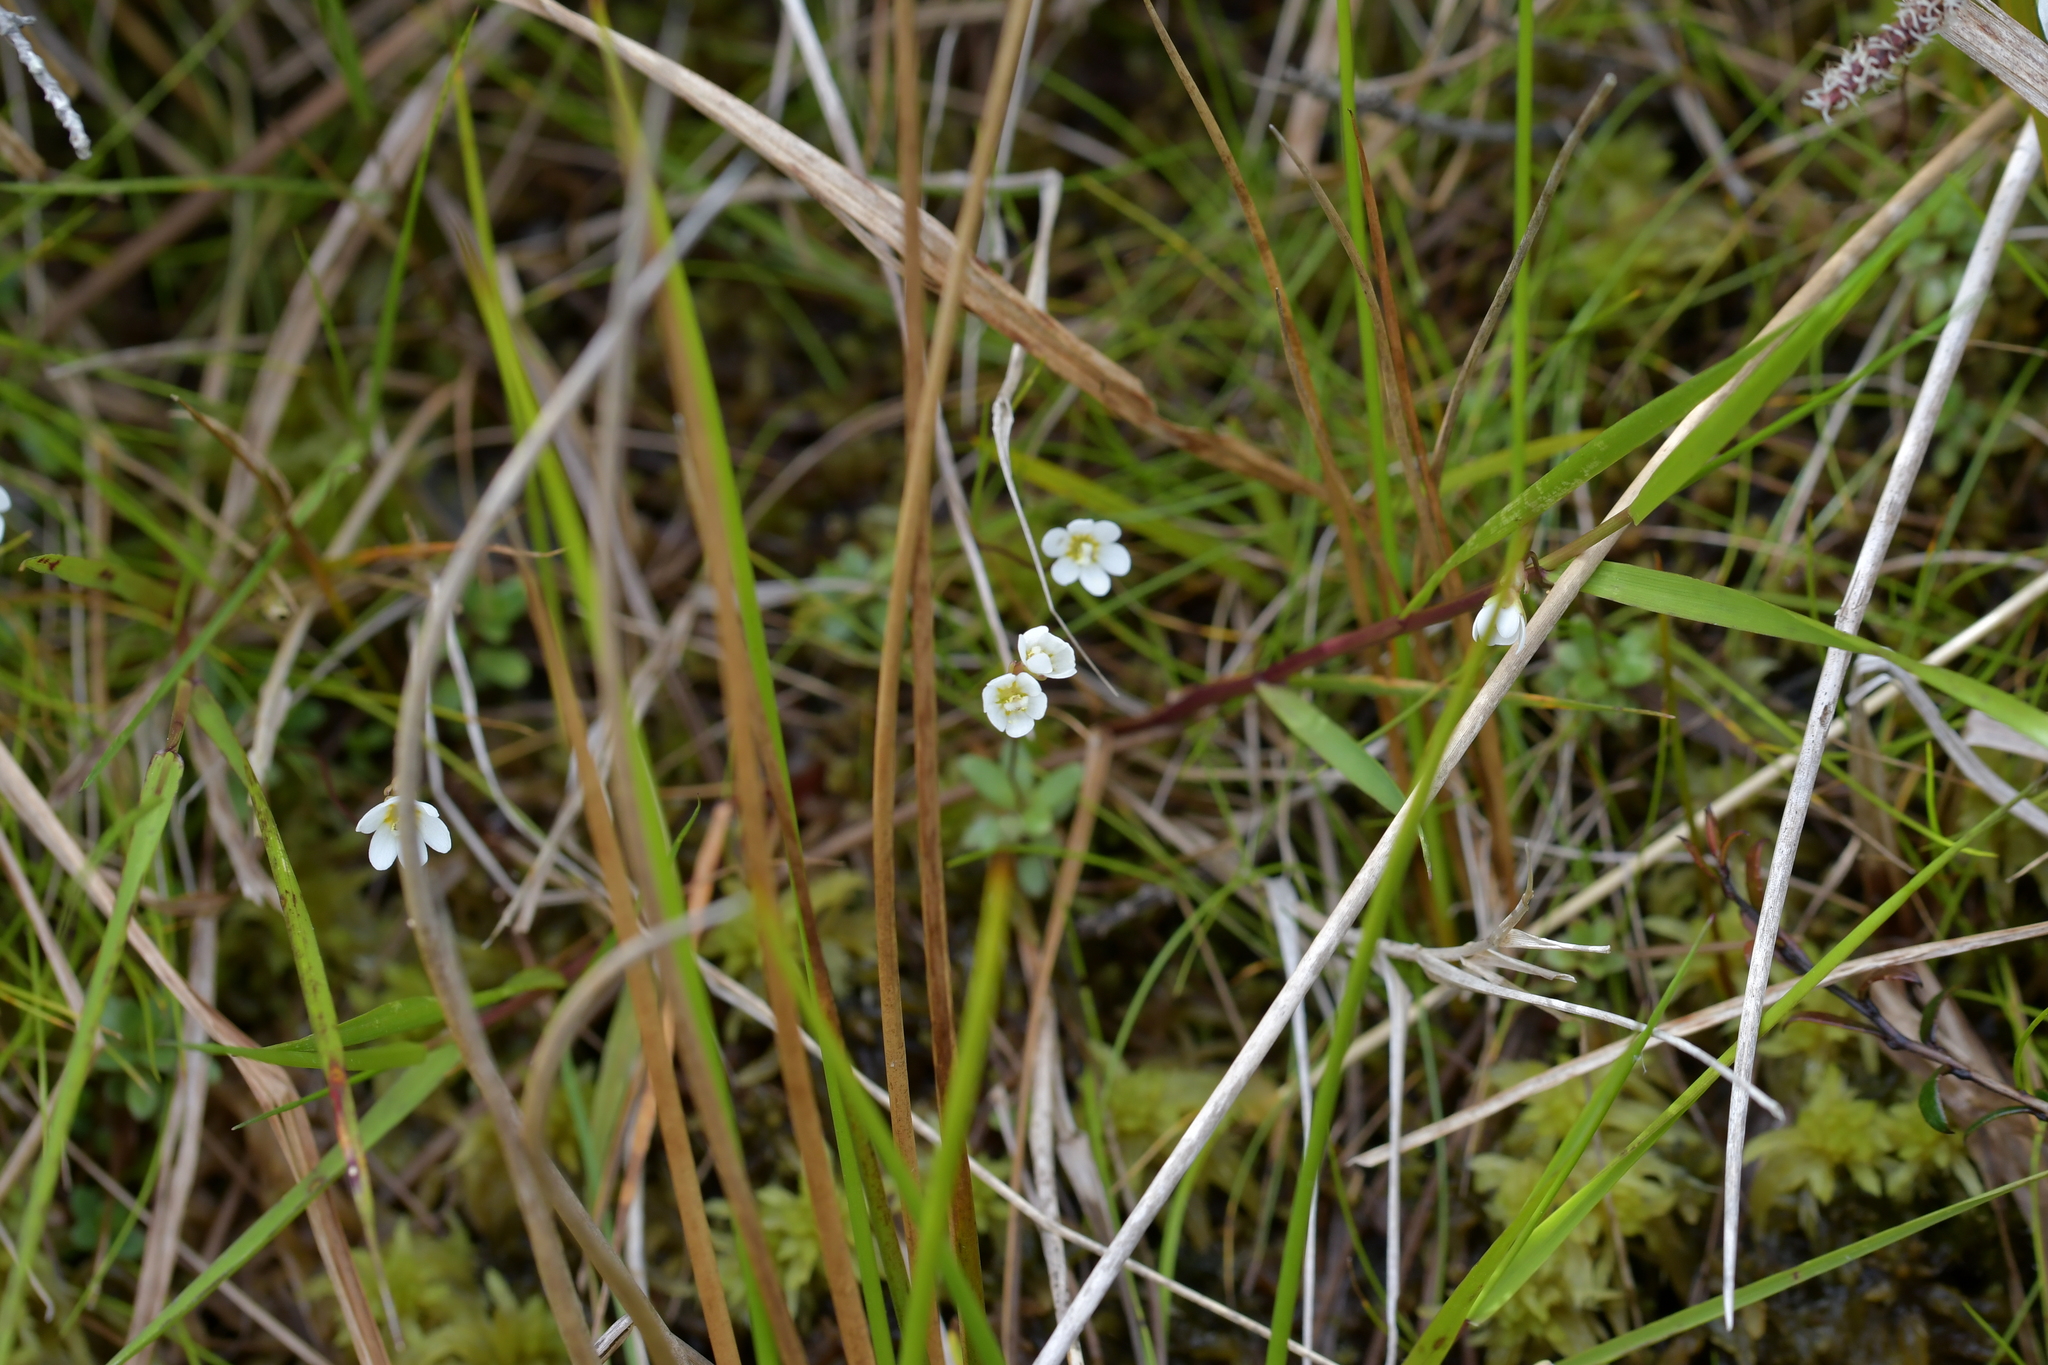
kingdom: Plantae
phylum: Tracheophyta
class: Magnoliopsida
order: Asterales
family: Stylidiaceae
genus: Forstera
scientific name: Forstera tenella
